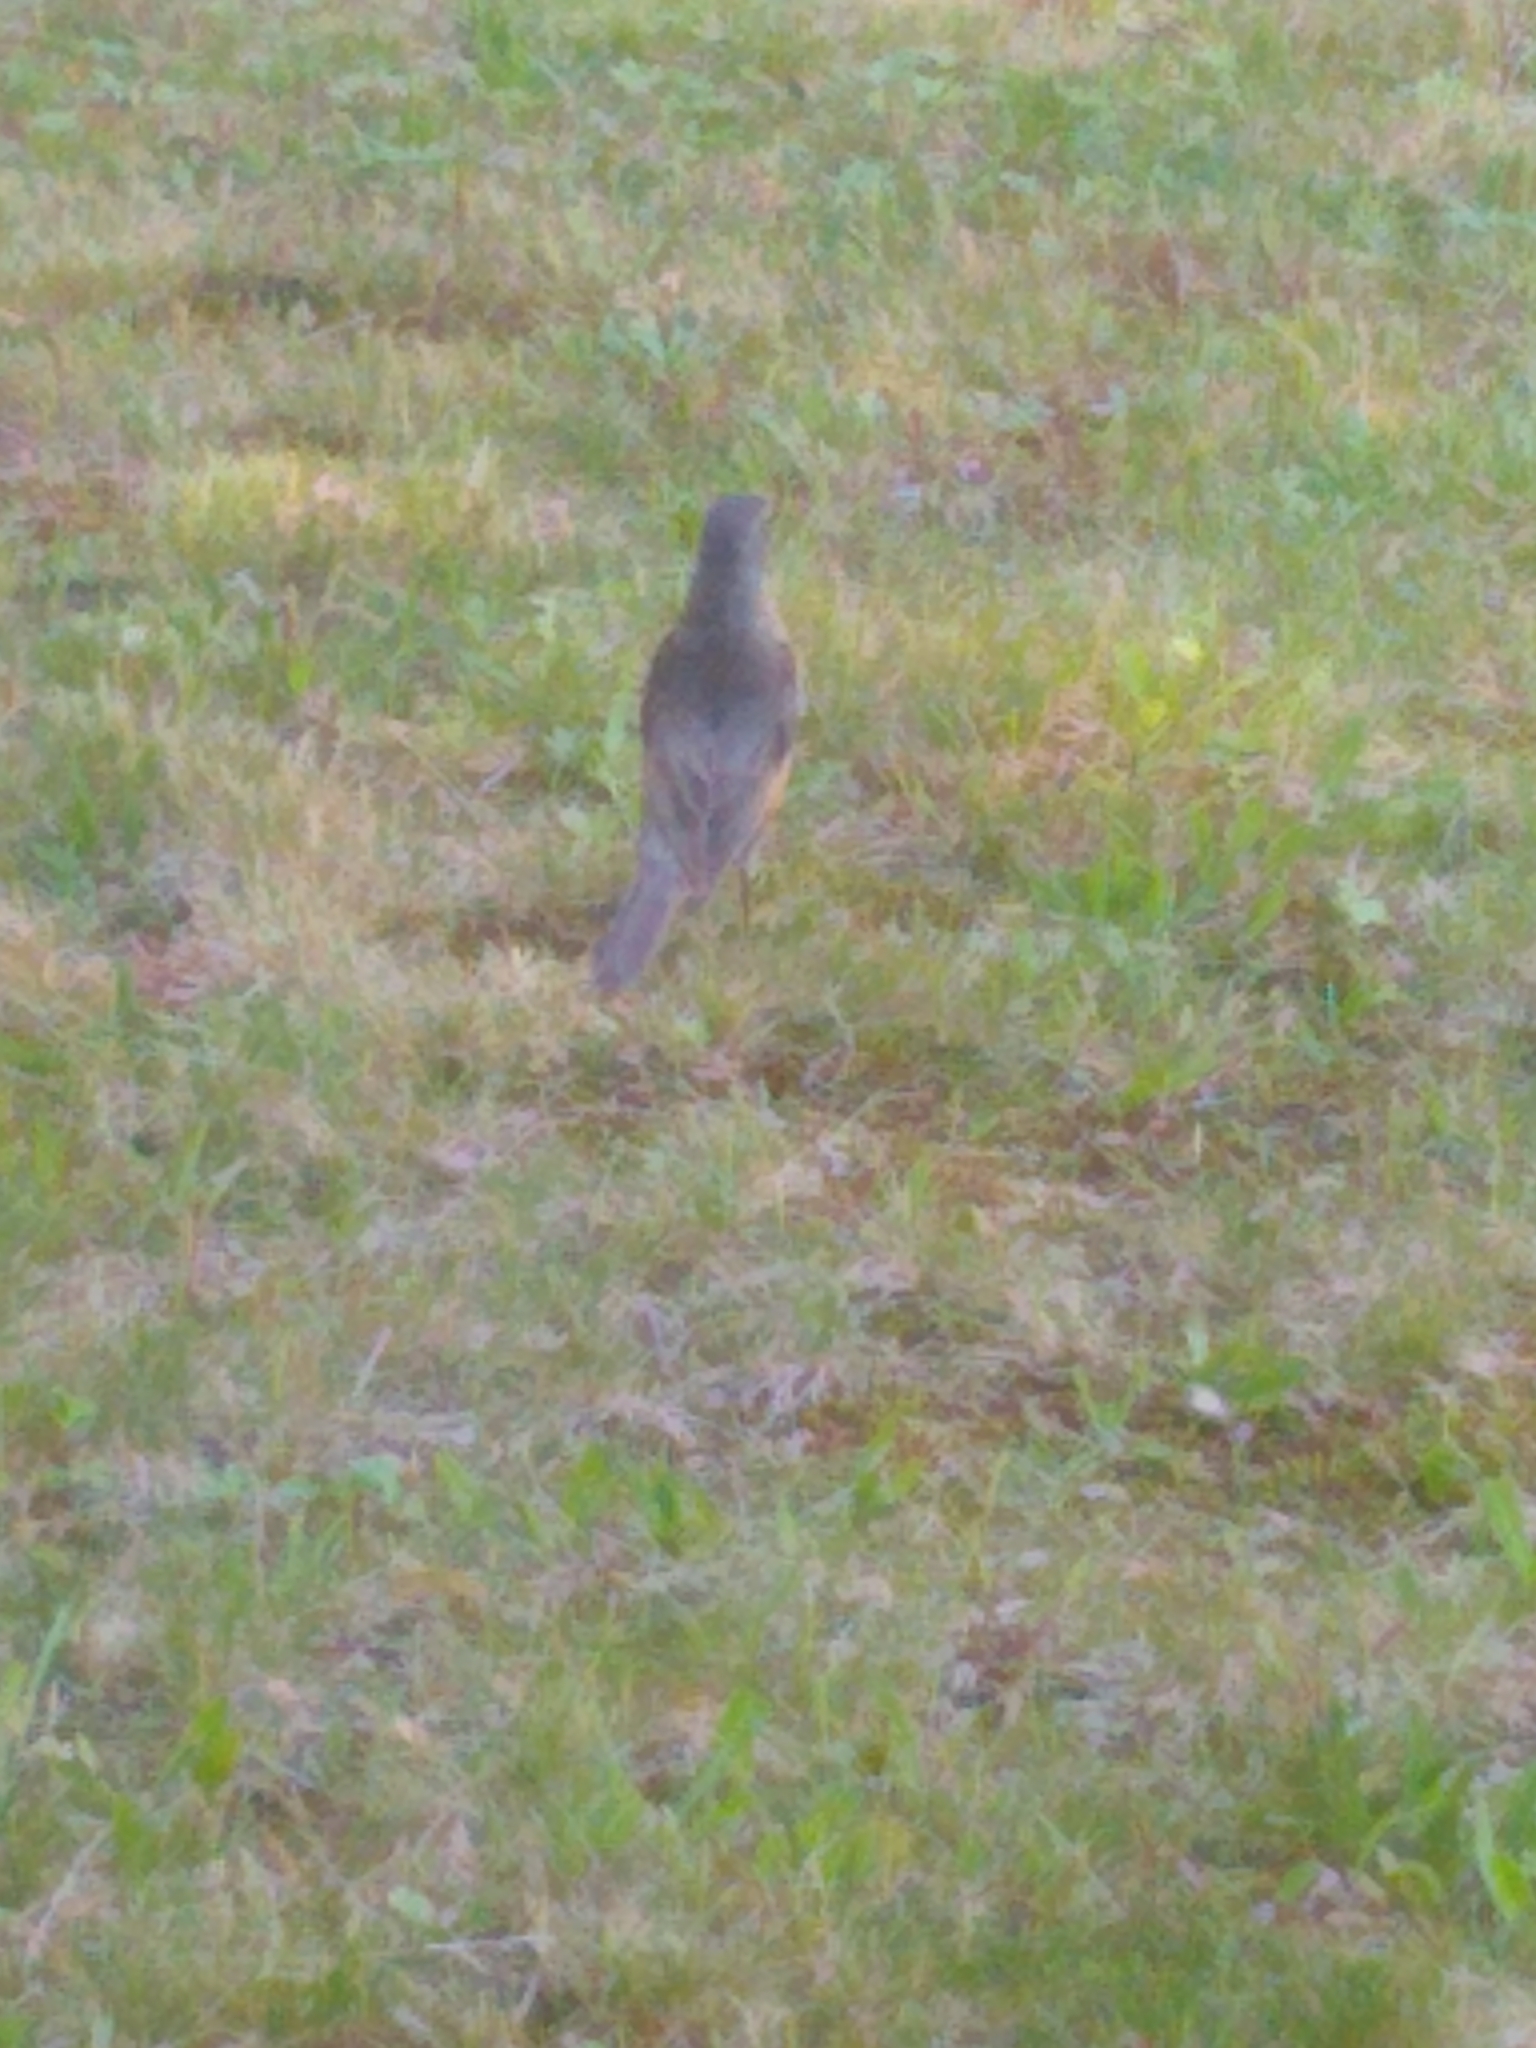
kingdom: Animalia
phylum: Chordata
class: Aves
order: Passeriformes
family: Turdidae
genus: Turdus
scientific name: Turdus migratorius
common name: American robin
